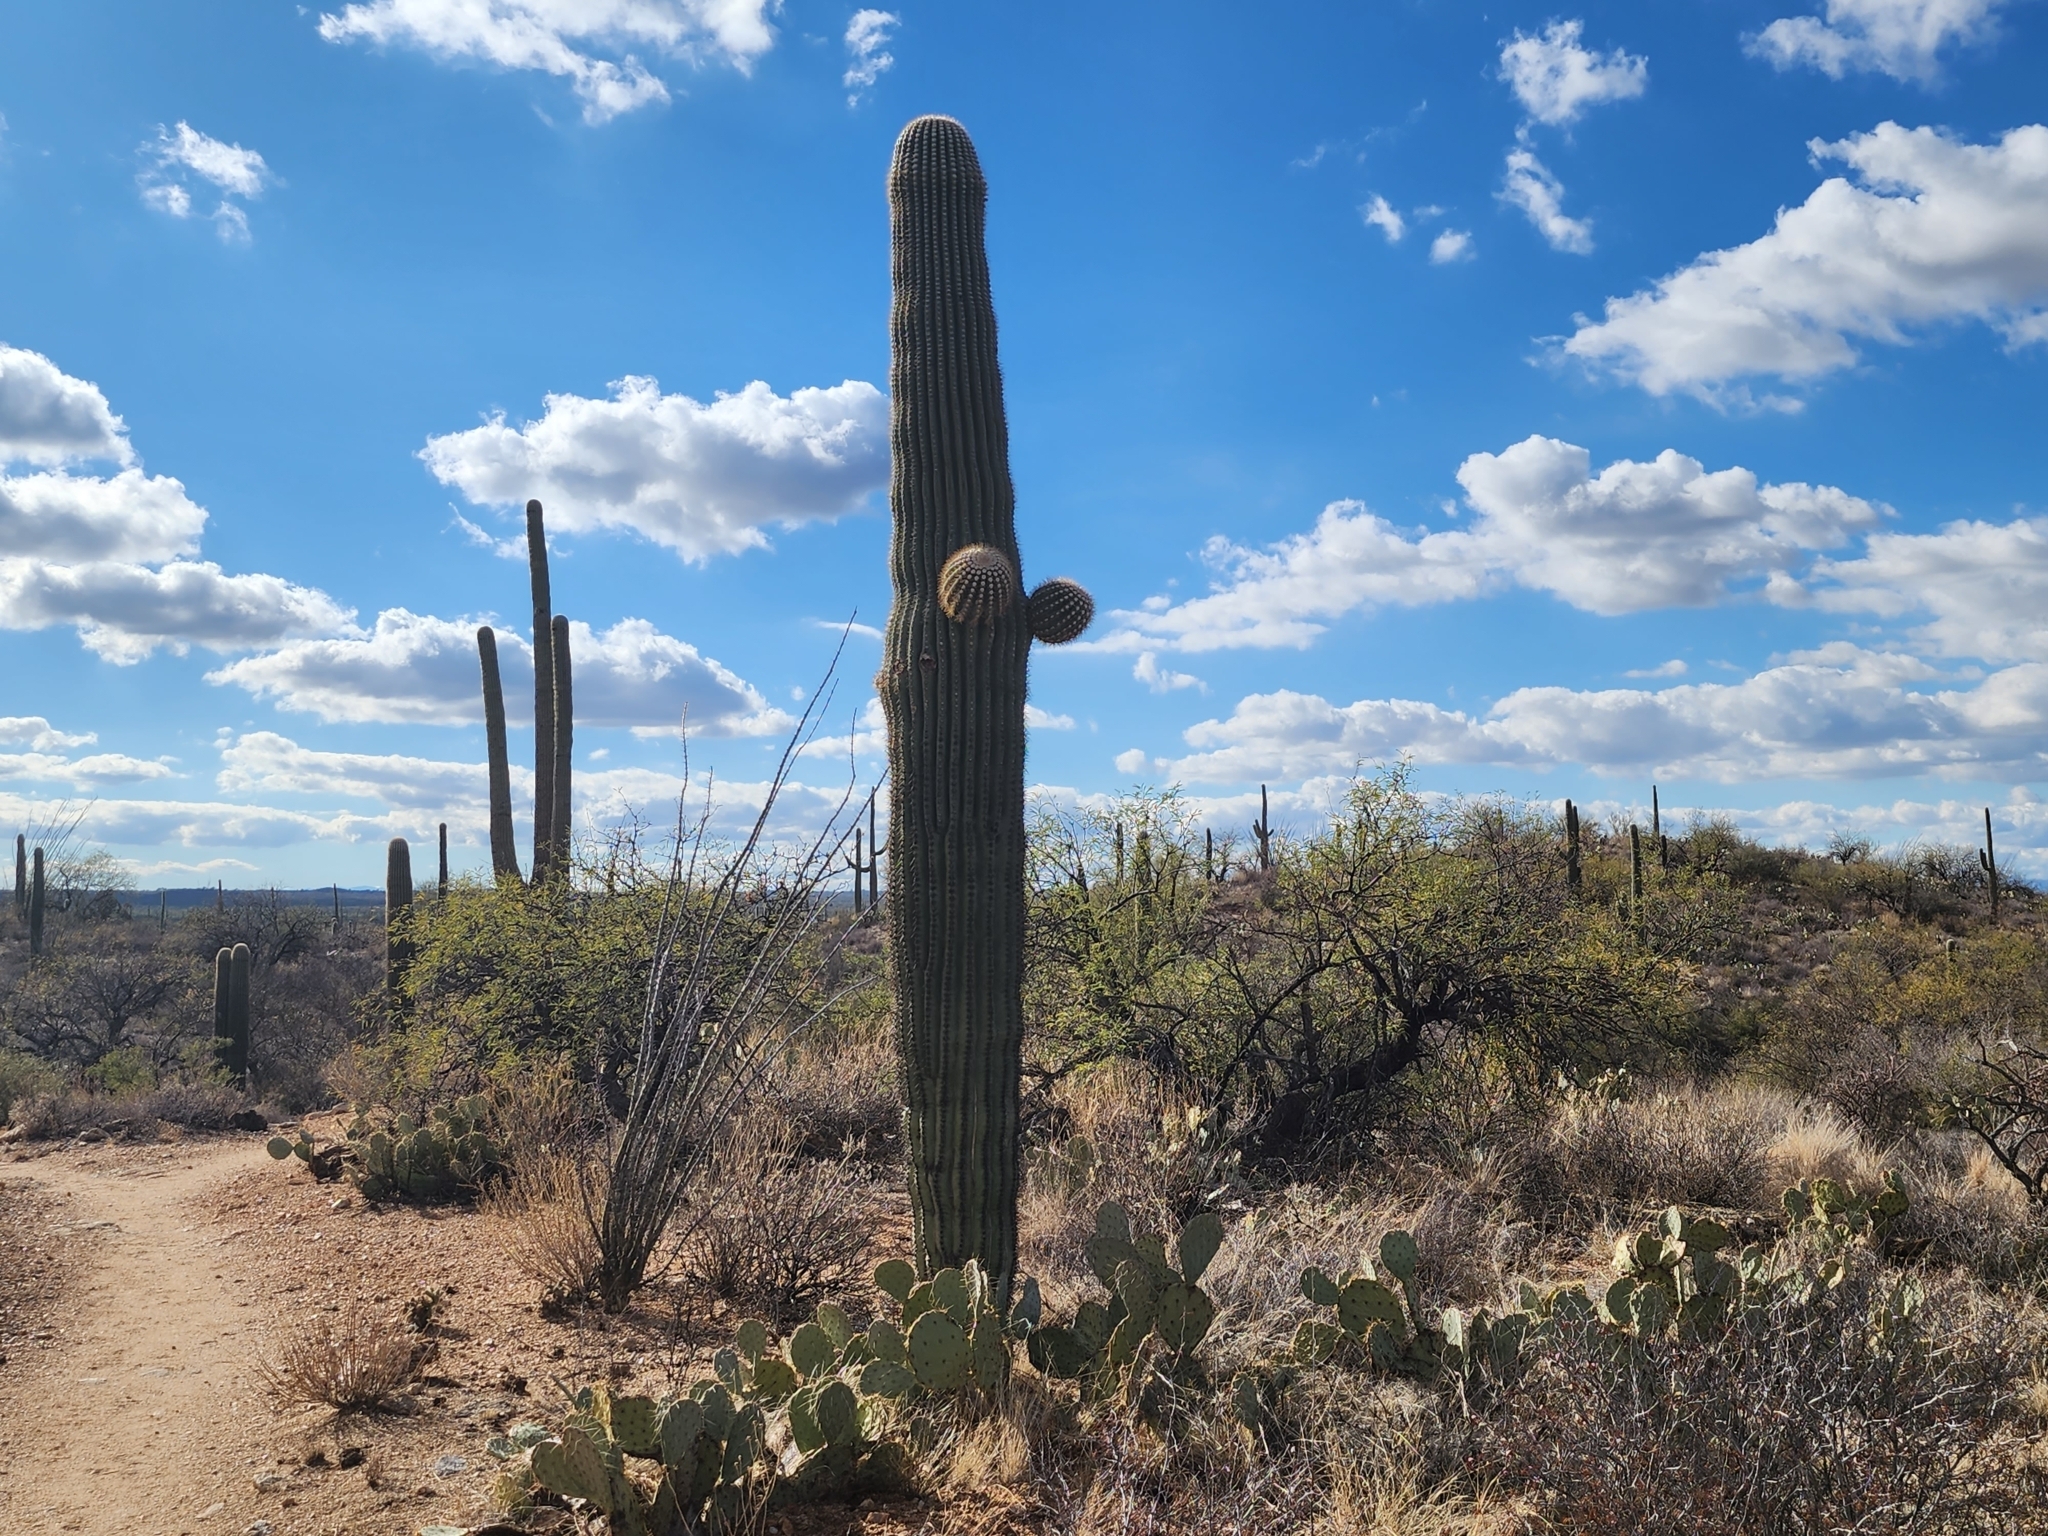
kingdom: Plantae
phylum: Tracheophyta
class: Magnoliopsida
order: Caryophyllales
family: Cactaceae
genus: Carnegiea
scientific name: Carnegiea gigantea
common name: Saguaro
